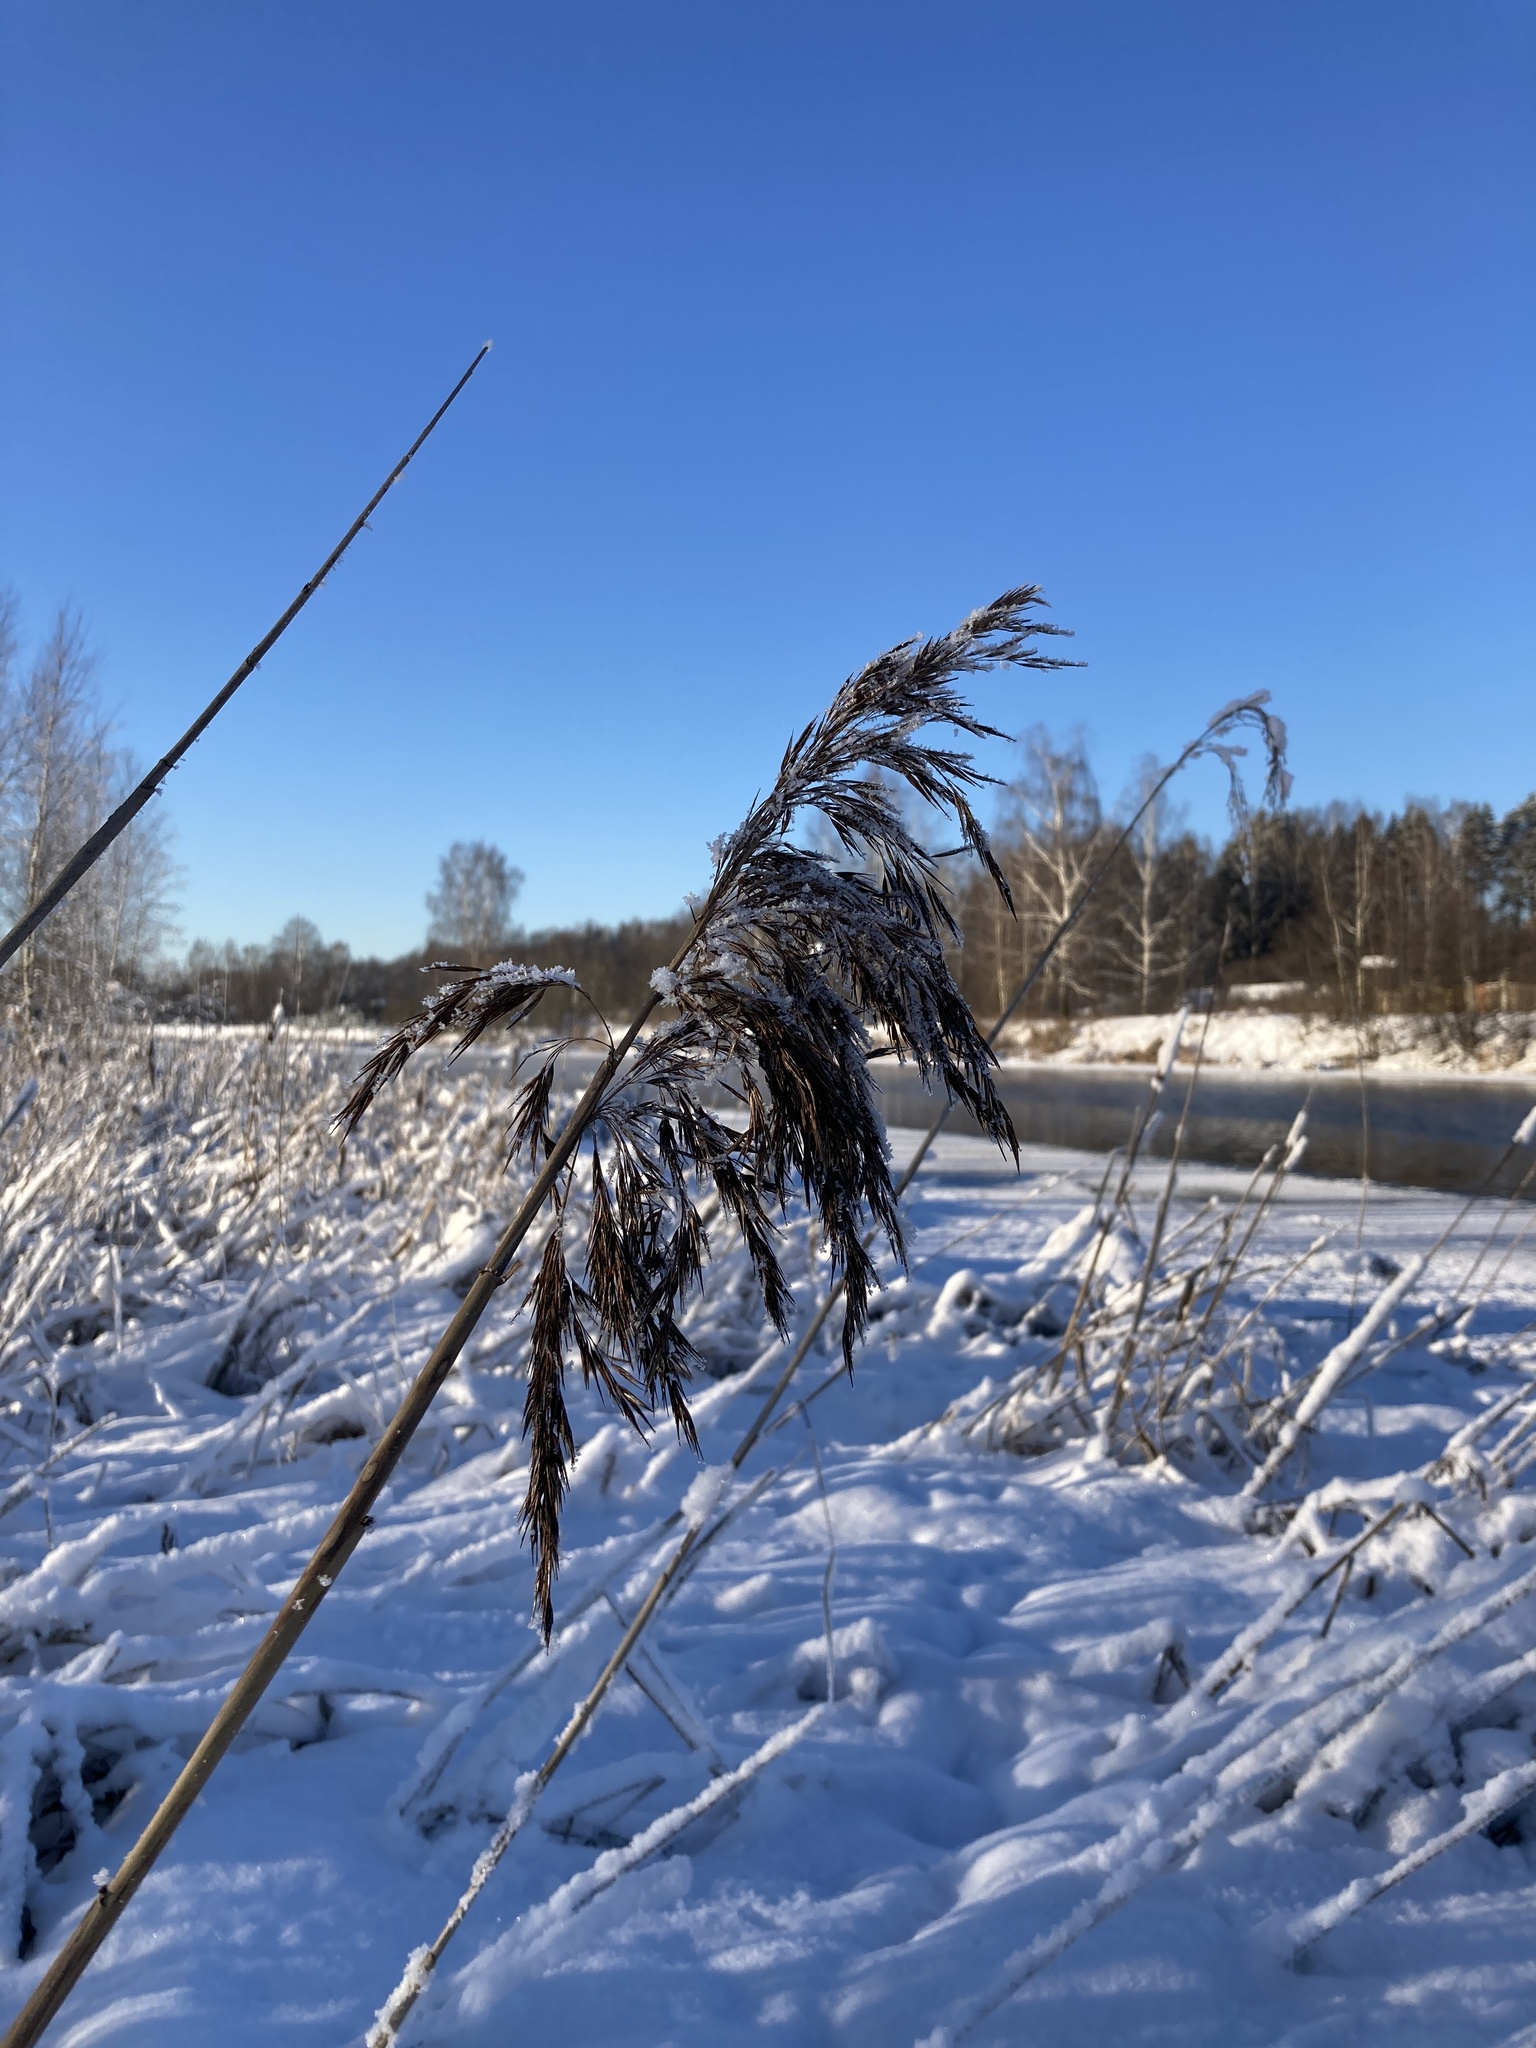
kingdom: Plantae
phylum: Tracheophyta
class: Liliopsida
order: Poales
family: Poaceae
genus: Phragmites
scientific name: Phragmites australis
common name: Common reed
